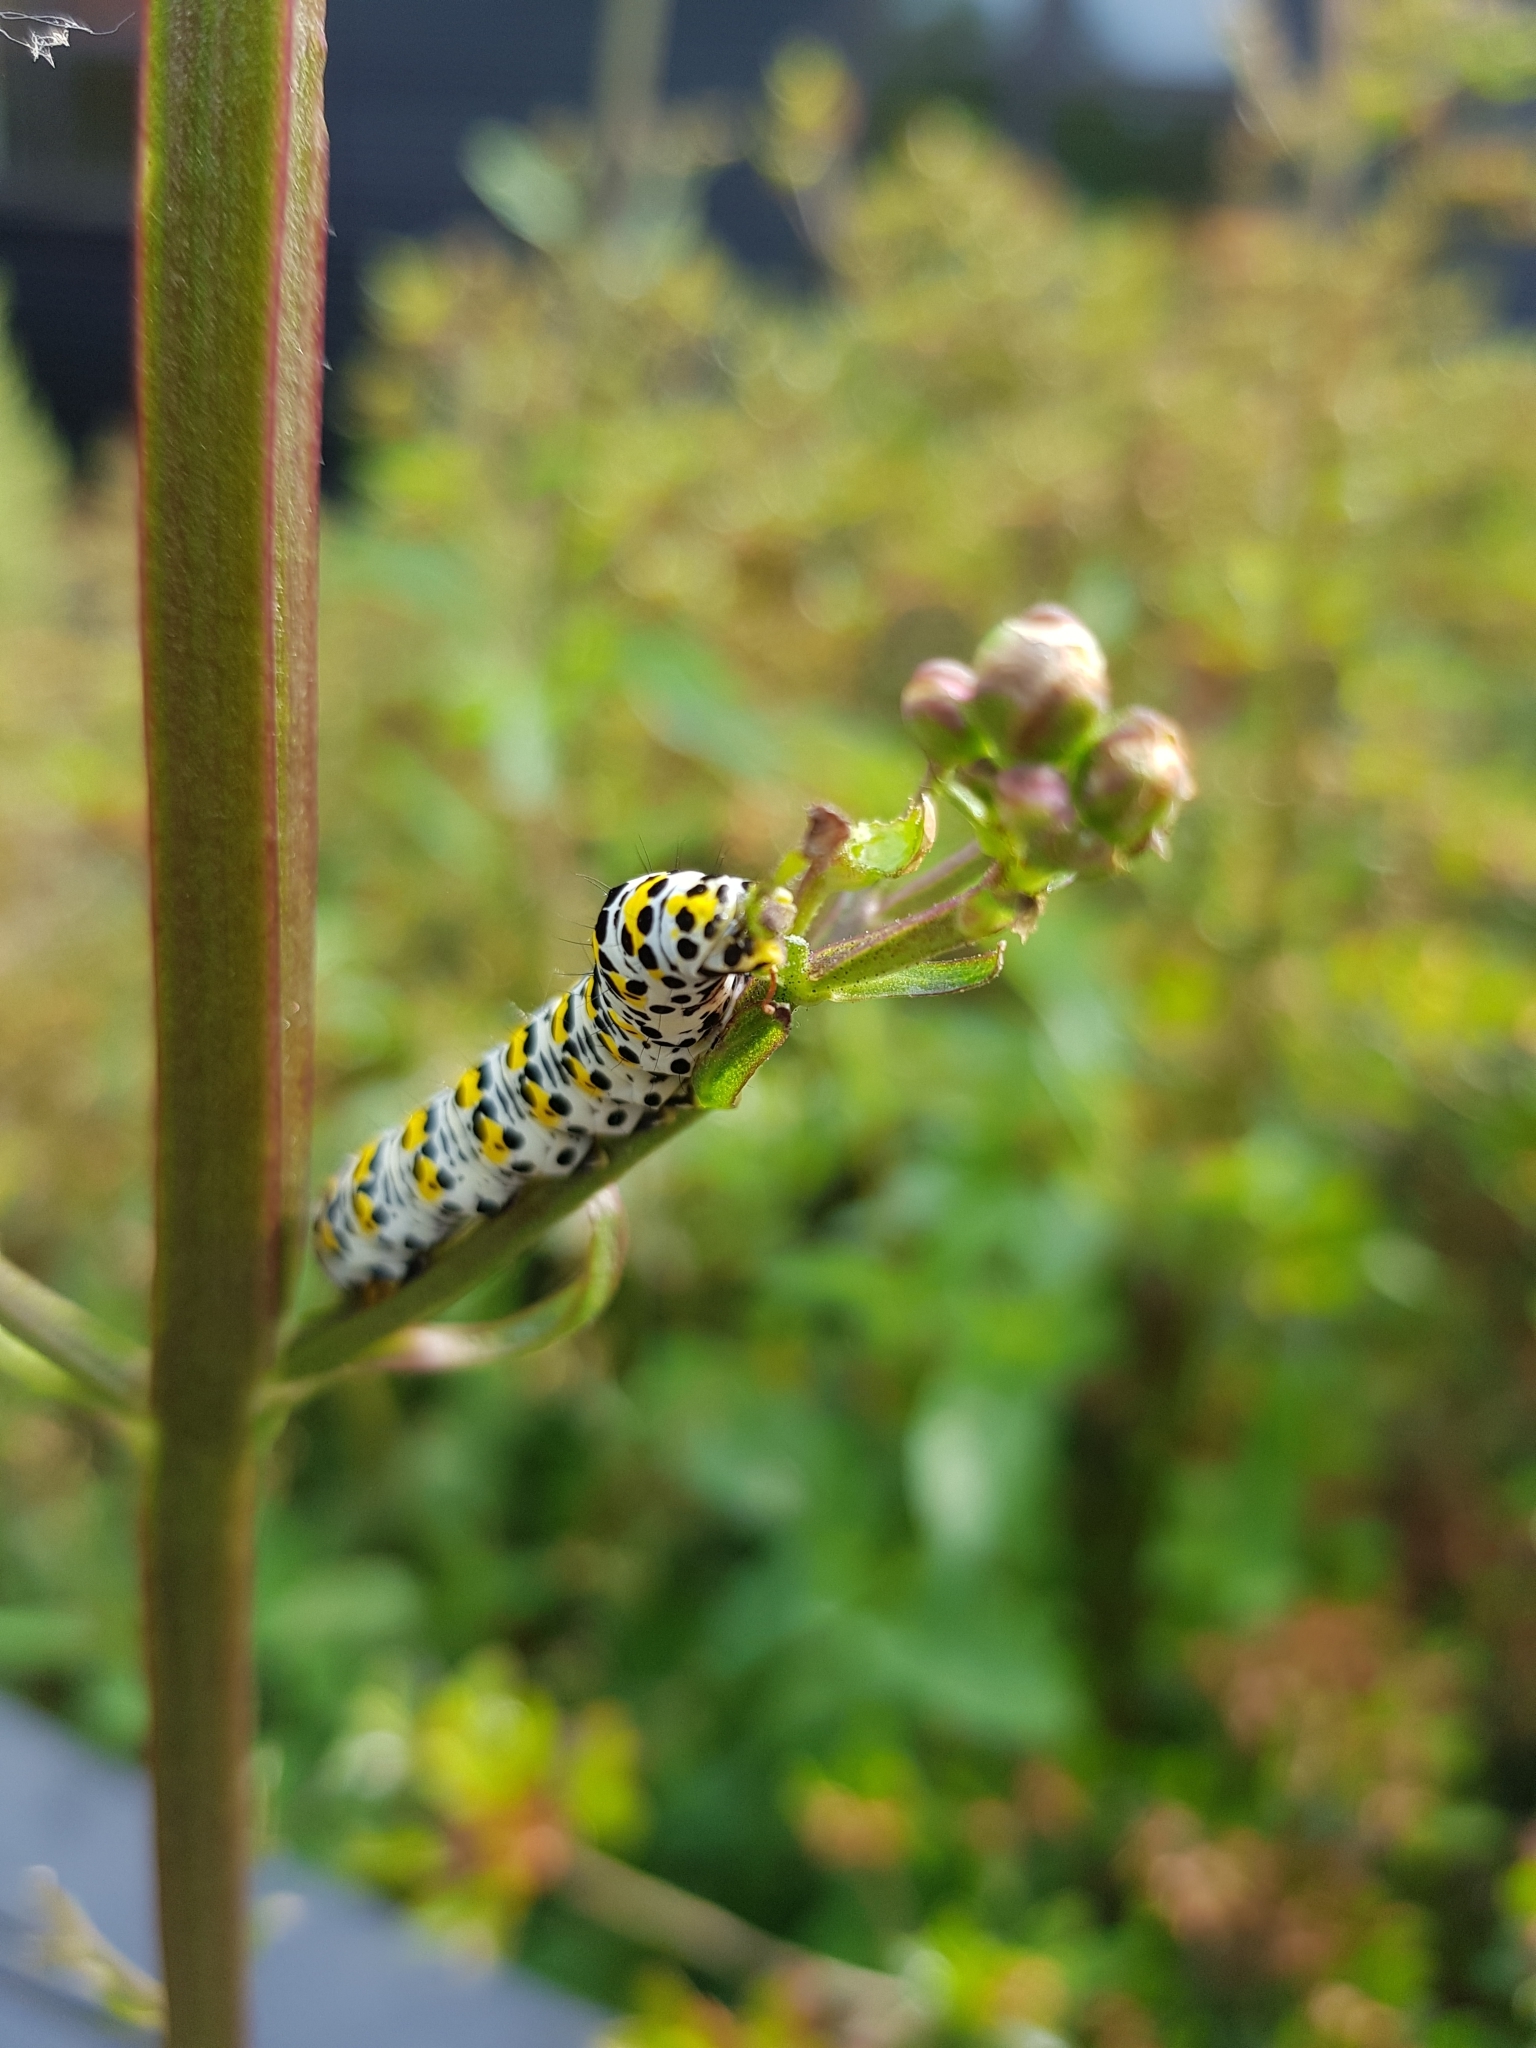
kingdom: Animalia
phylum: Arthropoda
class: Insecta
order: Lepidoptera
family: Noctuidae
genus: Cucullia
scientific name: Cucullia verbasci
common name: Mullein
